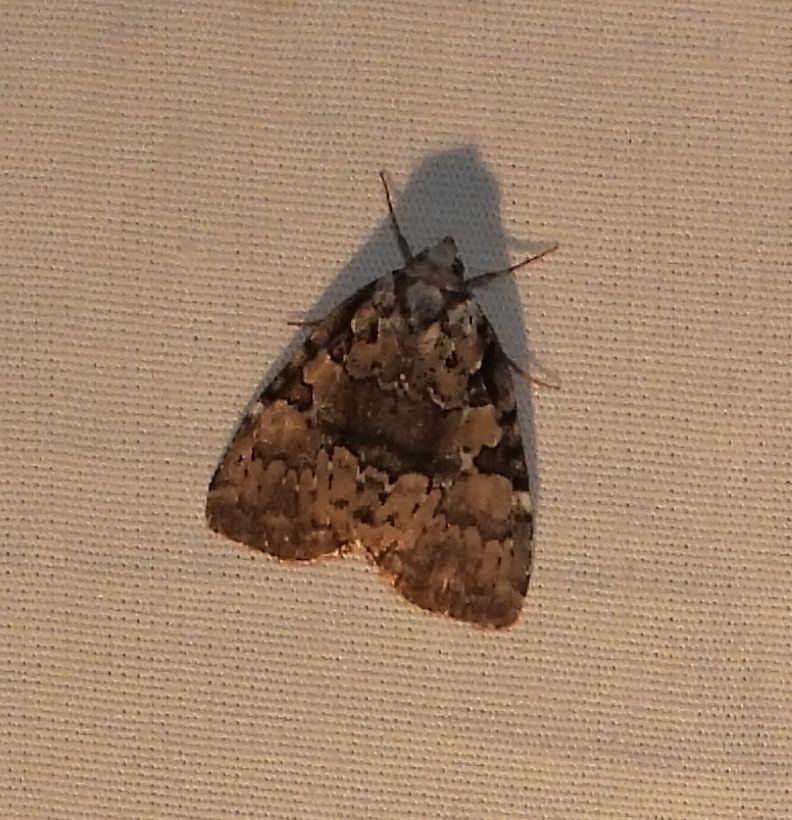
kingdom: Animalia
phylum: Arthropoda
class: Insecta
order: Lepidoptera
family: Noctuidae
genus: Leuconycta
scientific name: Leuconycta lepidula
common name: Marbled-green leuconycta moth
